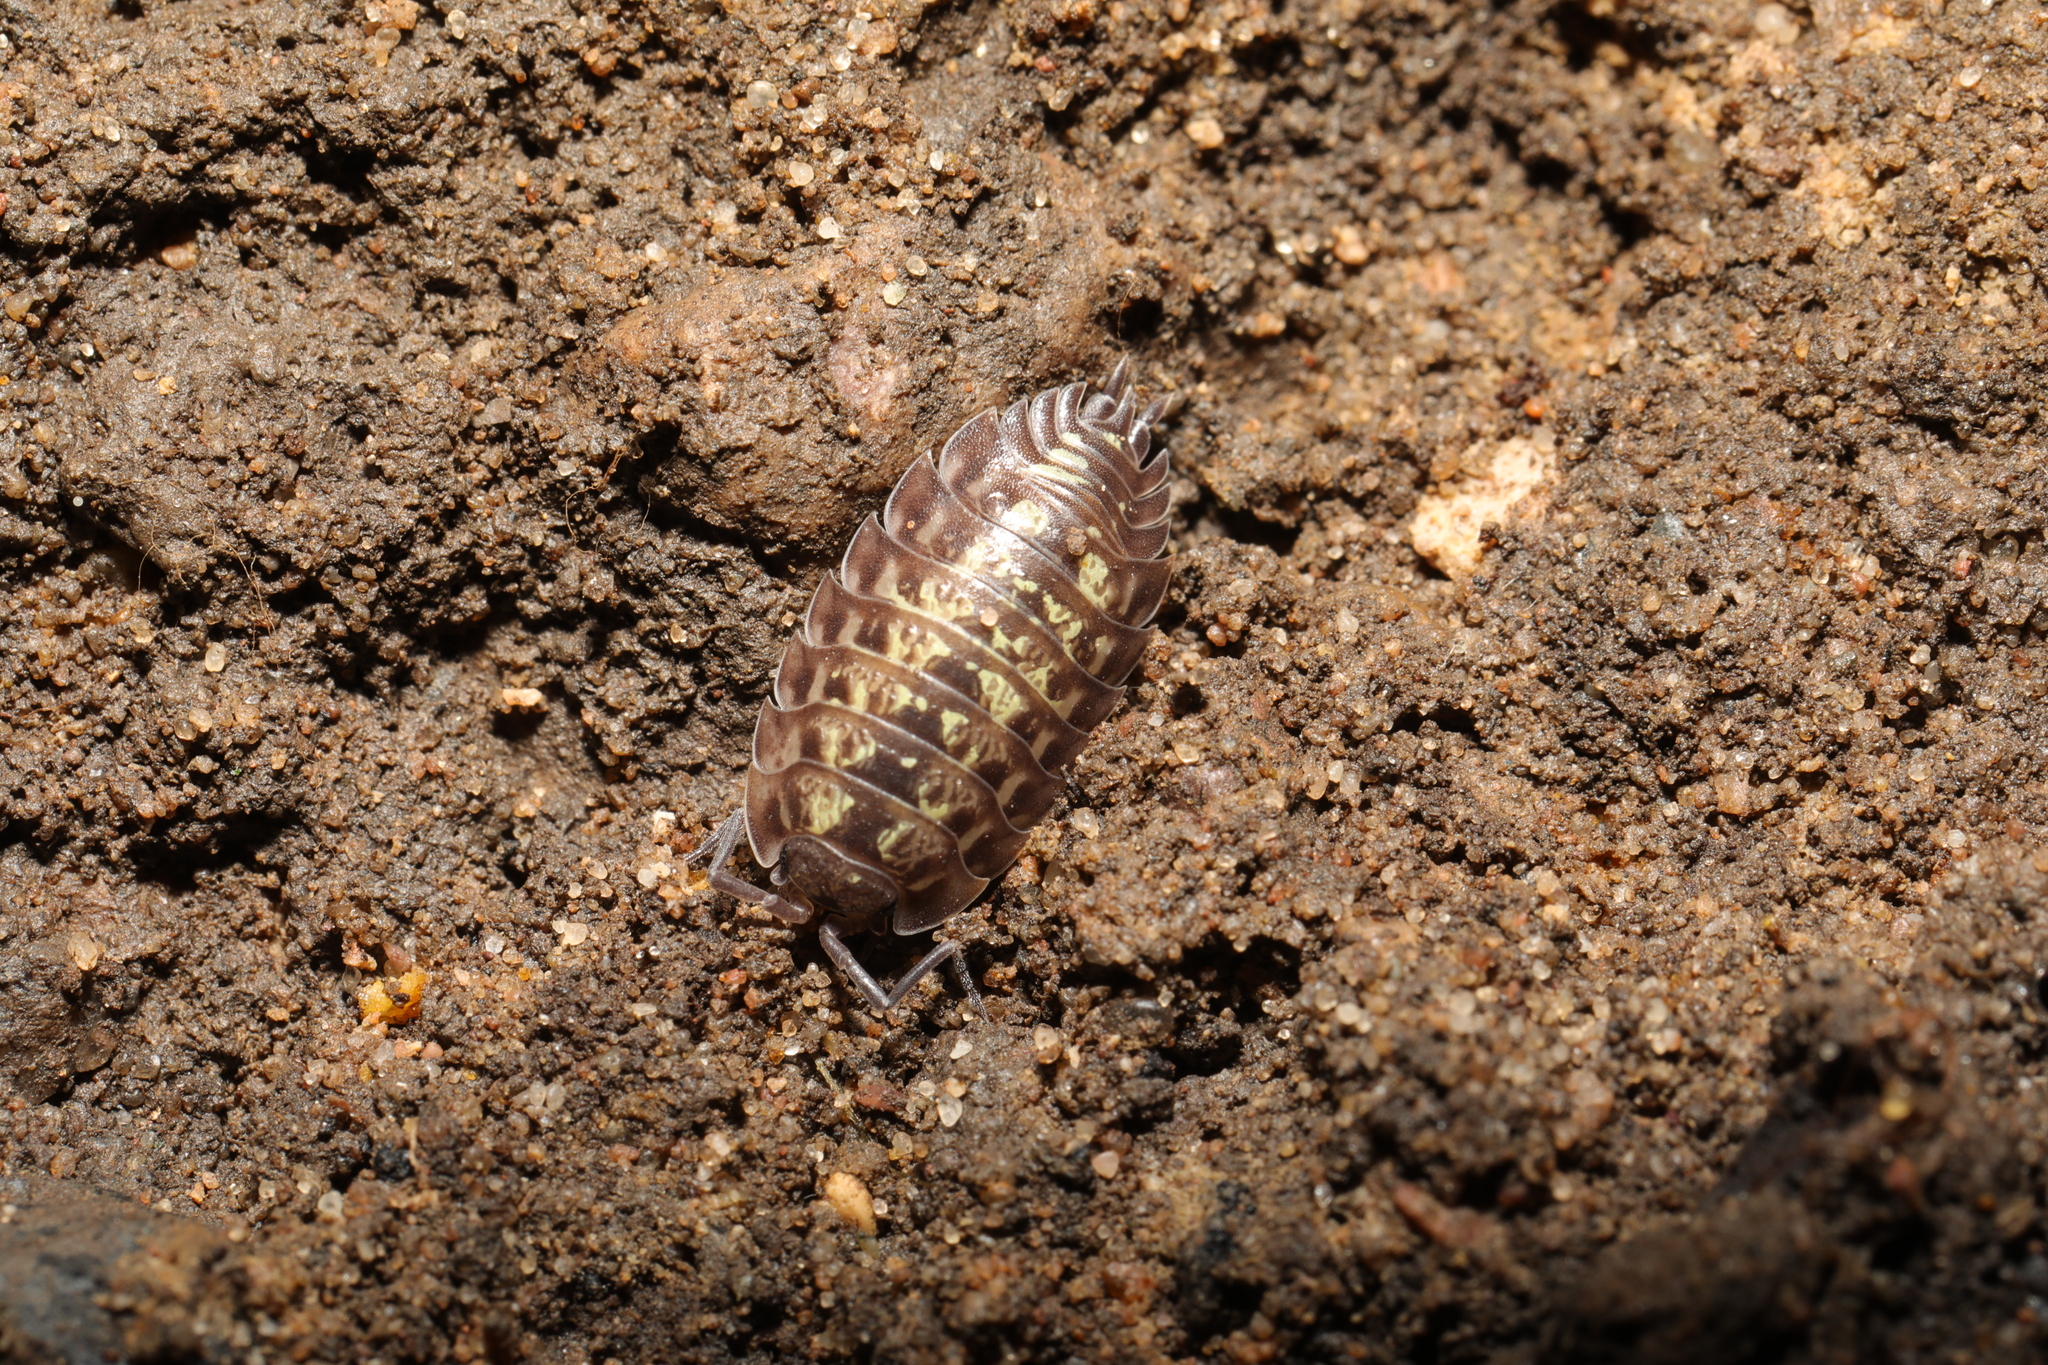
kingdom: Animalia
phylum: Arthropoda
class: Malacostraca
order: Isopoda
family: Oniscidae
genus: Oniscus
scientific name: Oniscus asellus
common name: Common shiny woodlouse
